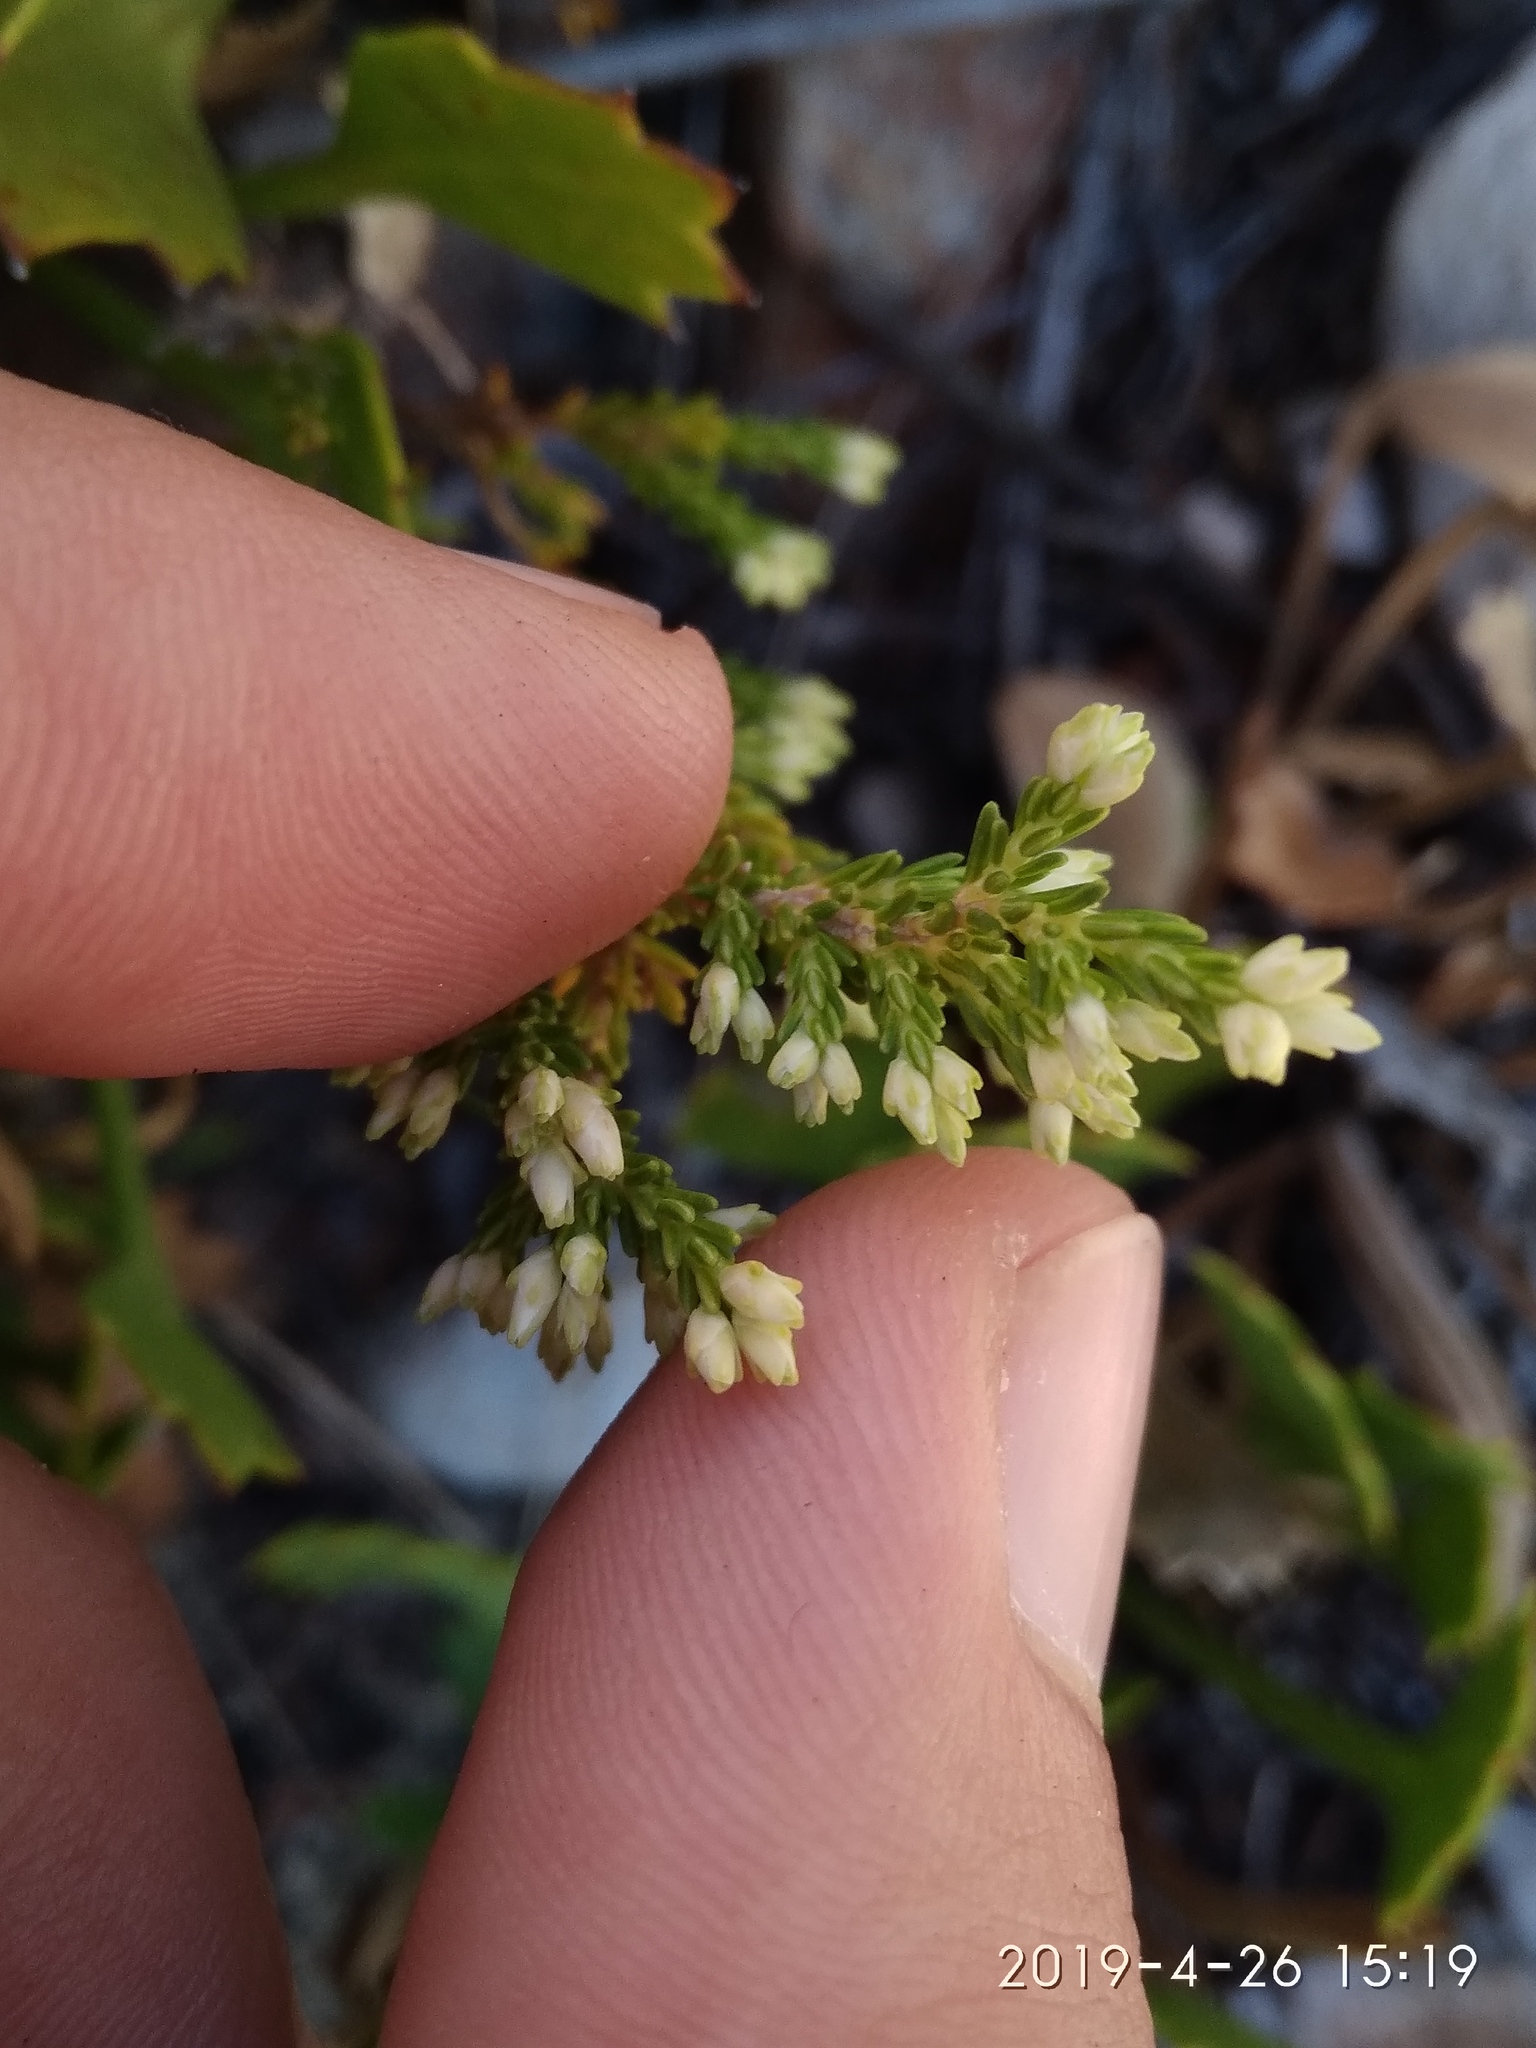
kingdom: Plantae
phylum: Tracheophyta
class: Magnoliopsida
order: Ericales
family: Ericaceae
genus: Erica
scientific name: Erica imbricata
